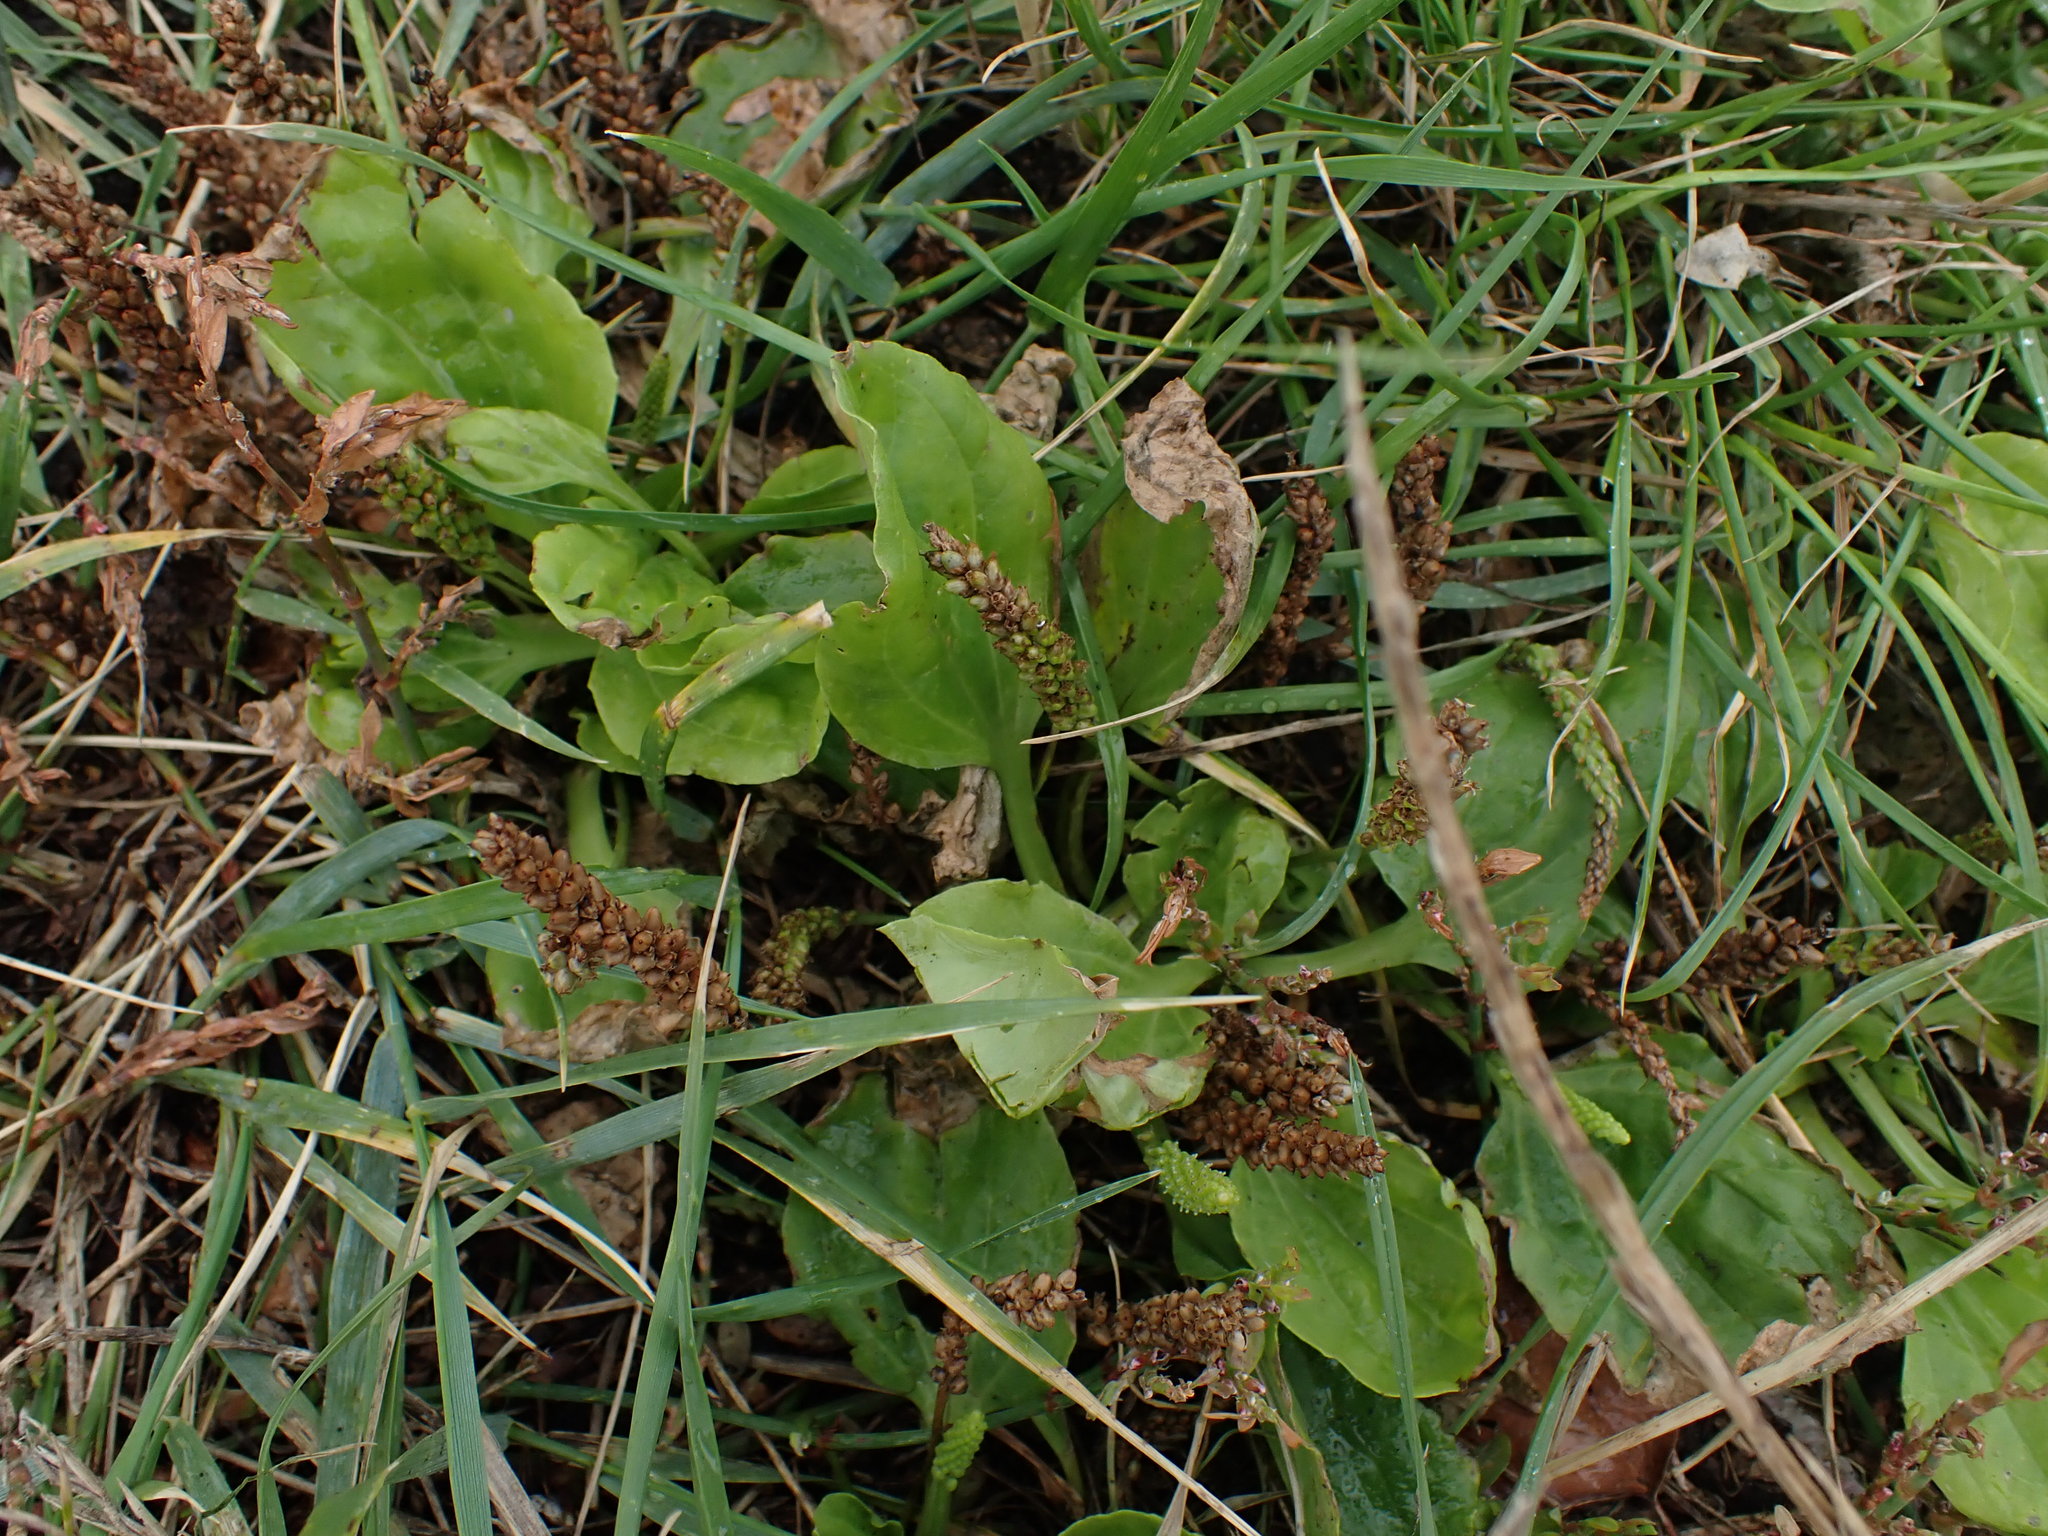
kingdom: Plantae
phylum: Tracheophyta
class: Magnoliopsida
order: Lamiales
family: Plantaginaceae
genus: Plantago
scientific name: Plantago major
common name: Common plantain
